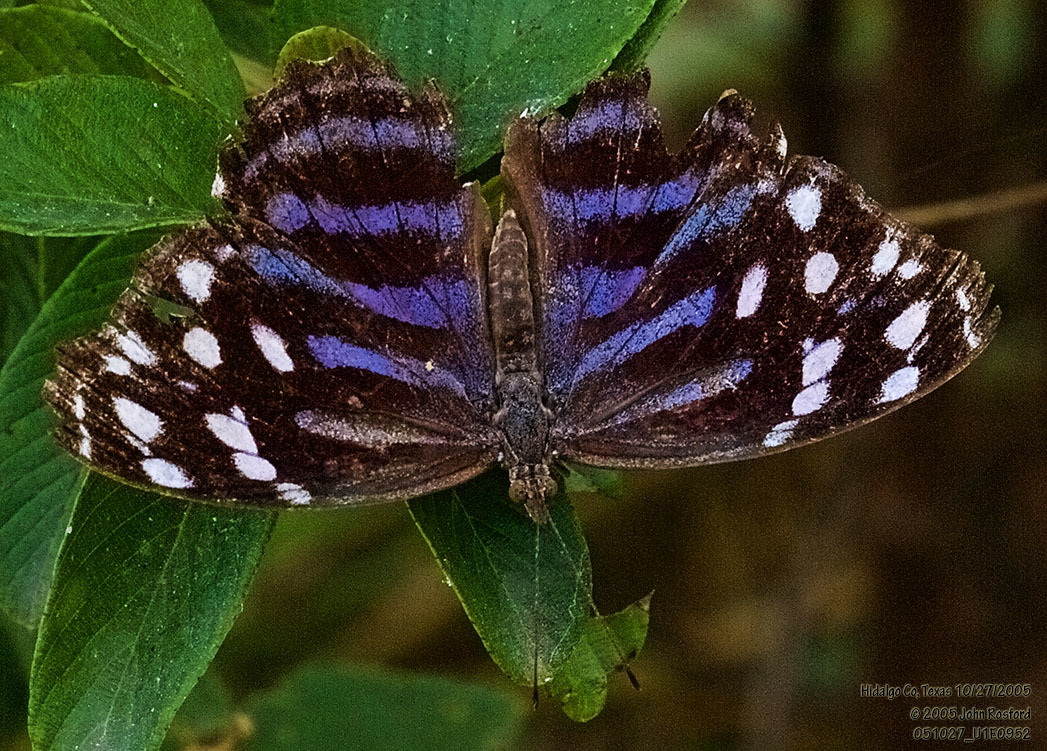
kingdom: Animalia
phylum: Arthropoda
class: Insecta
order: Lepidoptera
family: Nymphalidae
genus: Myscelia
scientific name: Myscelia ethusa
